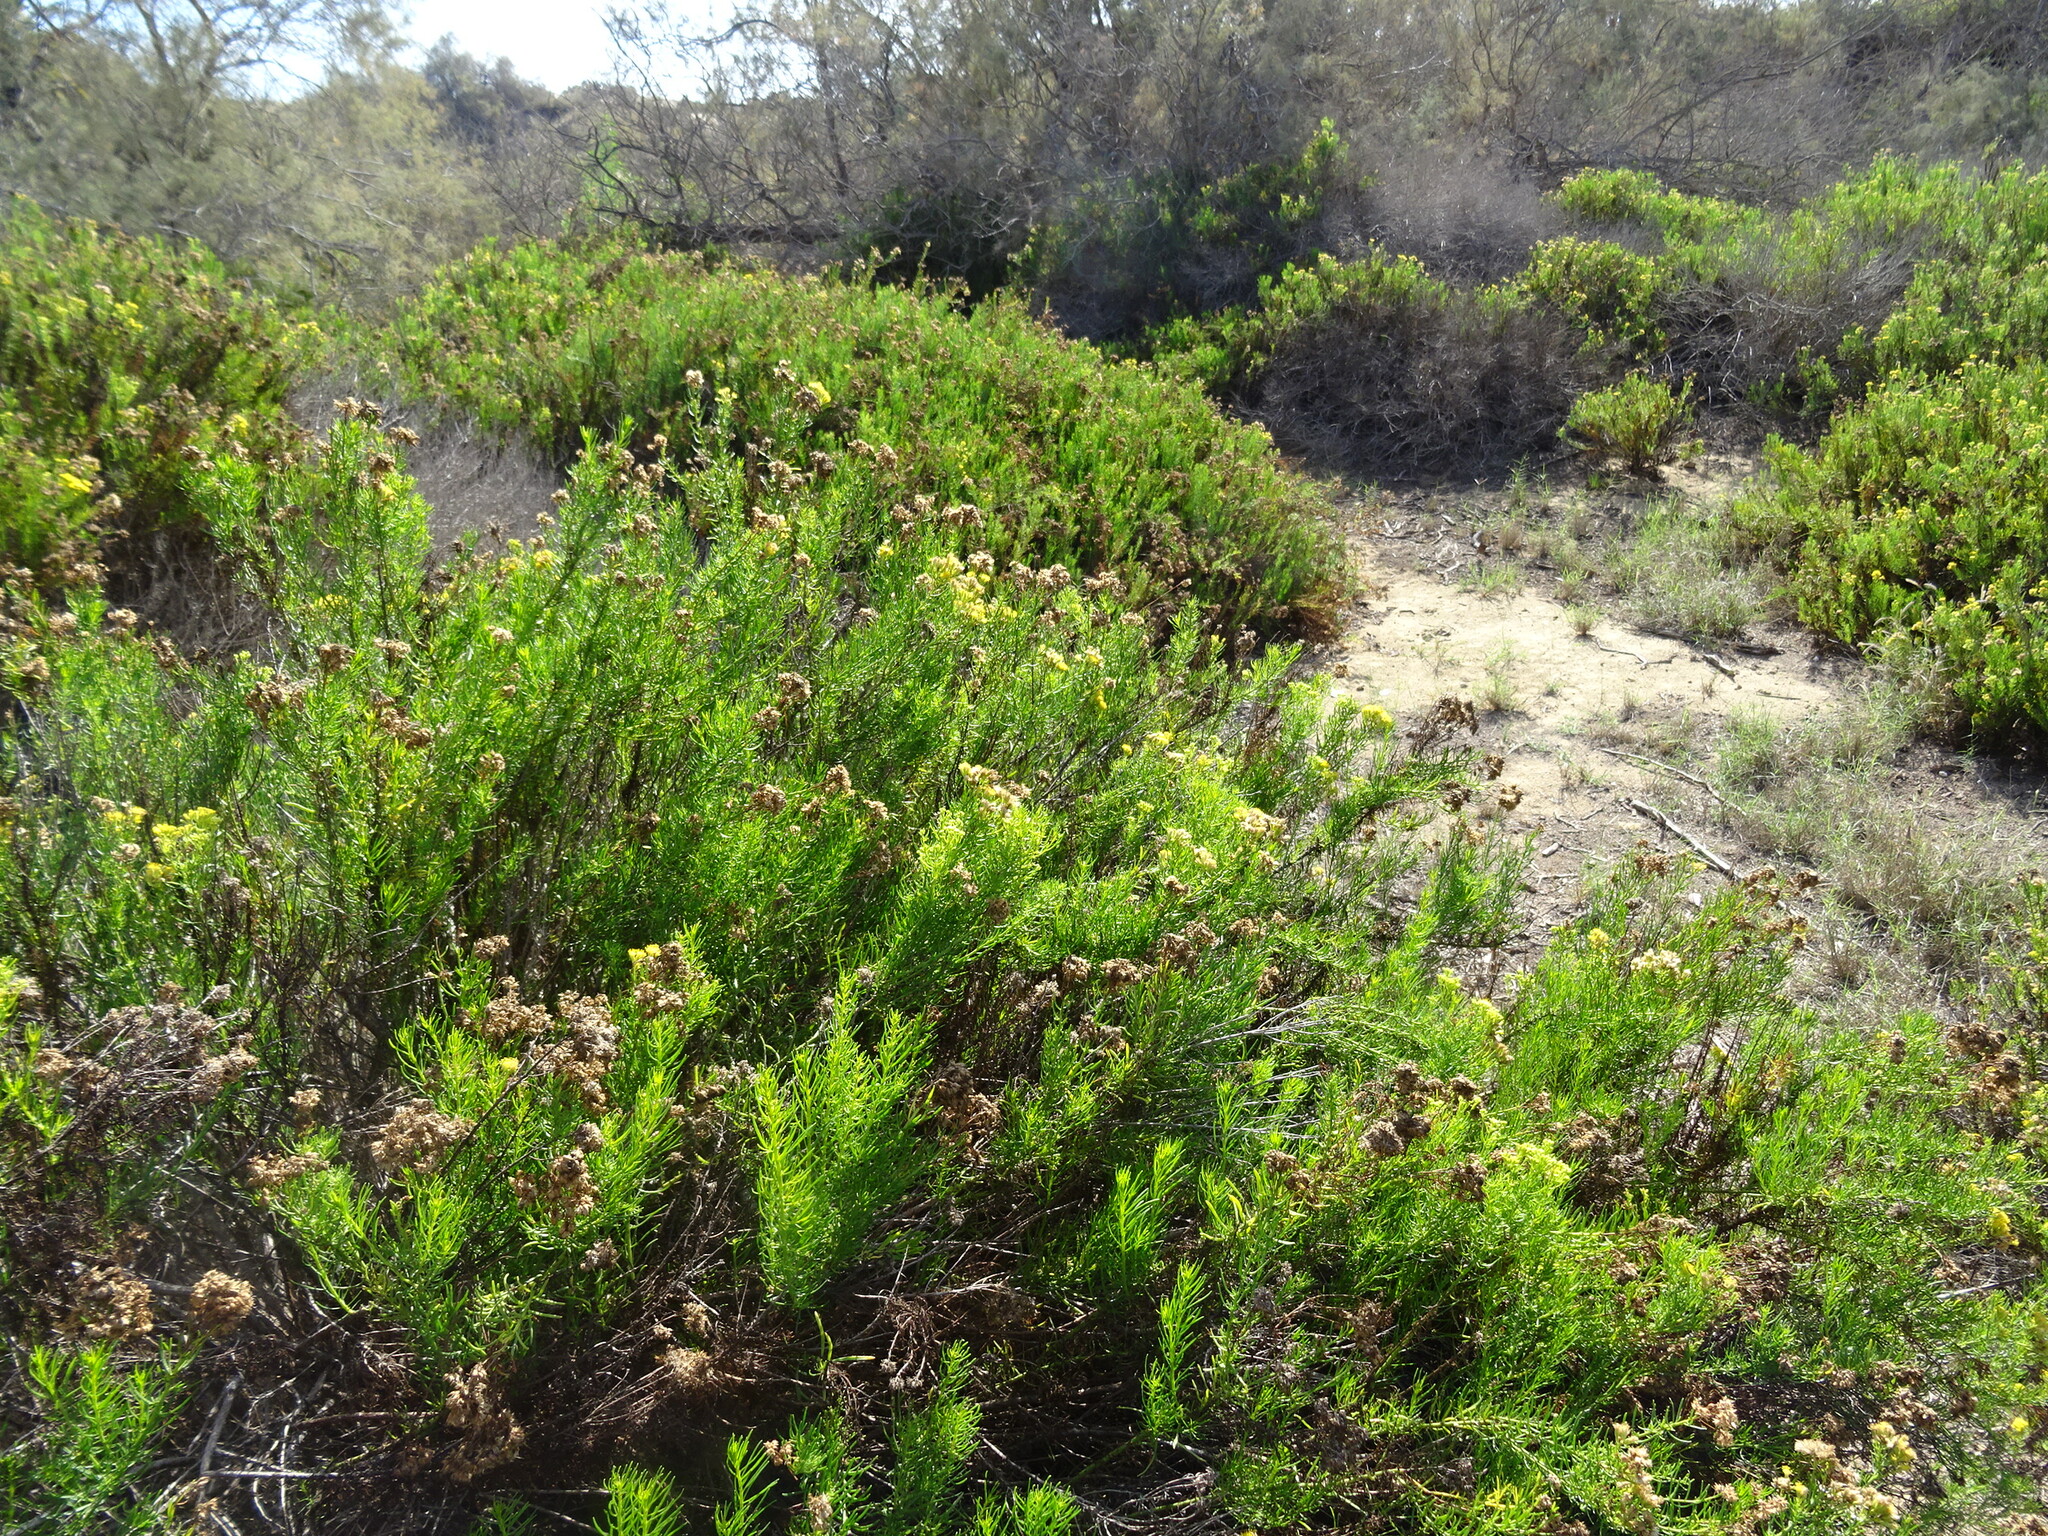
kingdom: Plantae
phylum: Tracheophyta
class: Magnoliopsida
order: Asterales
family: Asteraceae
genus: Schizogyne
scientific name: Schizogyne glaberrima
